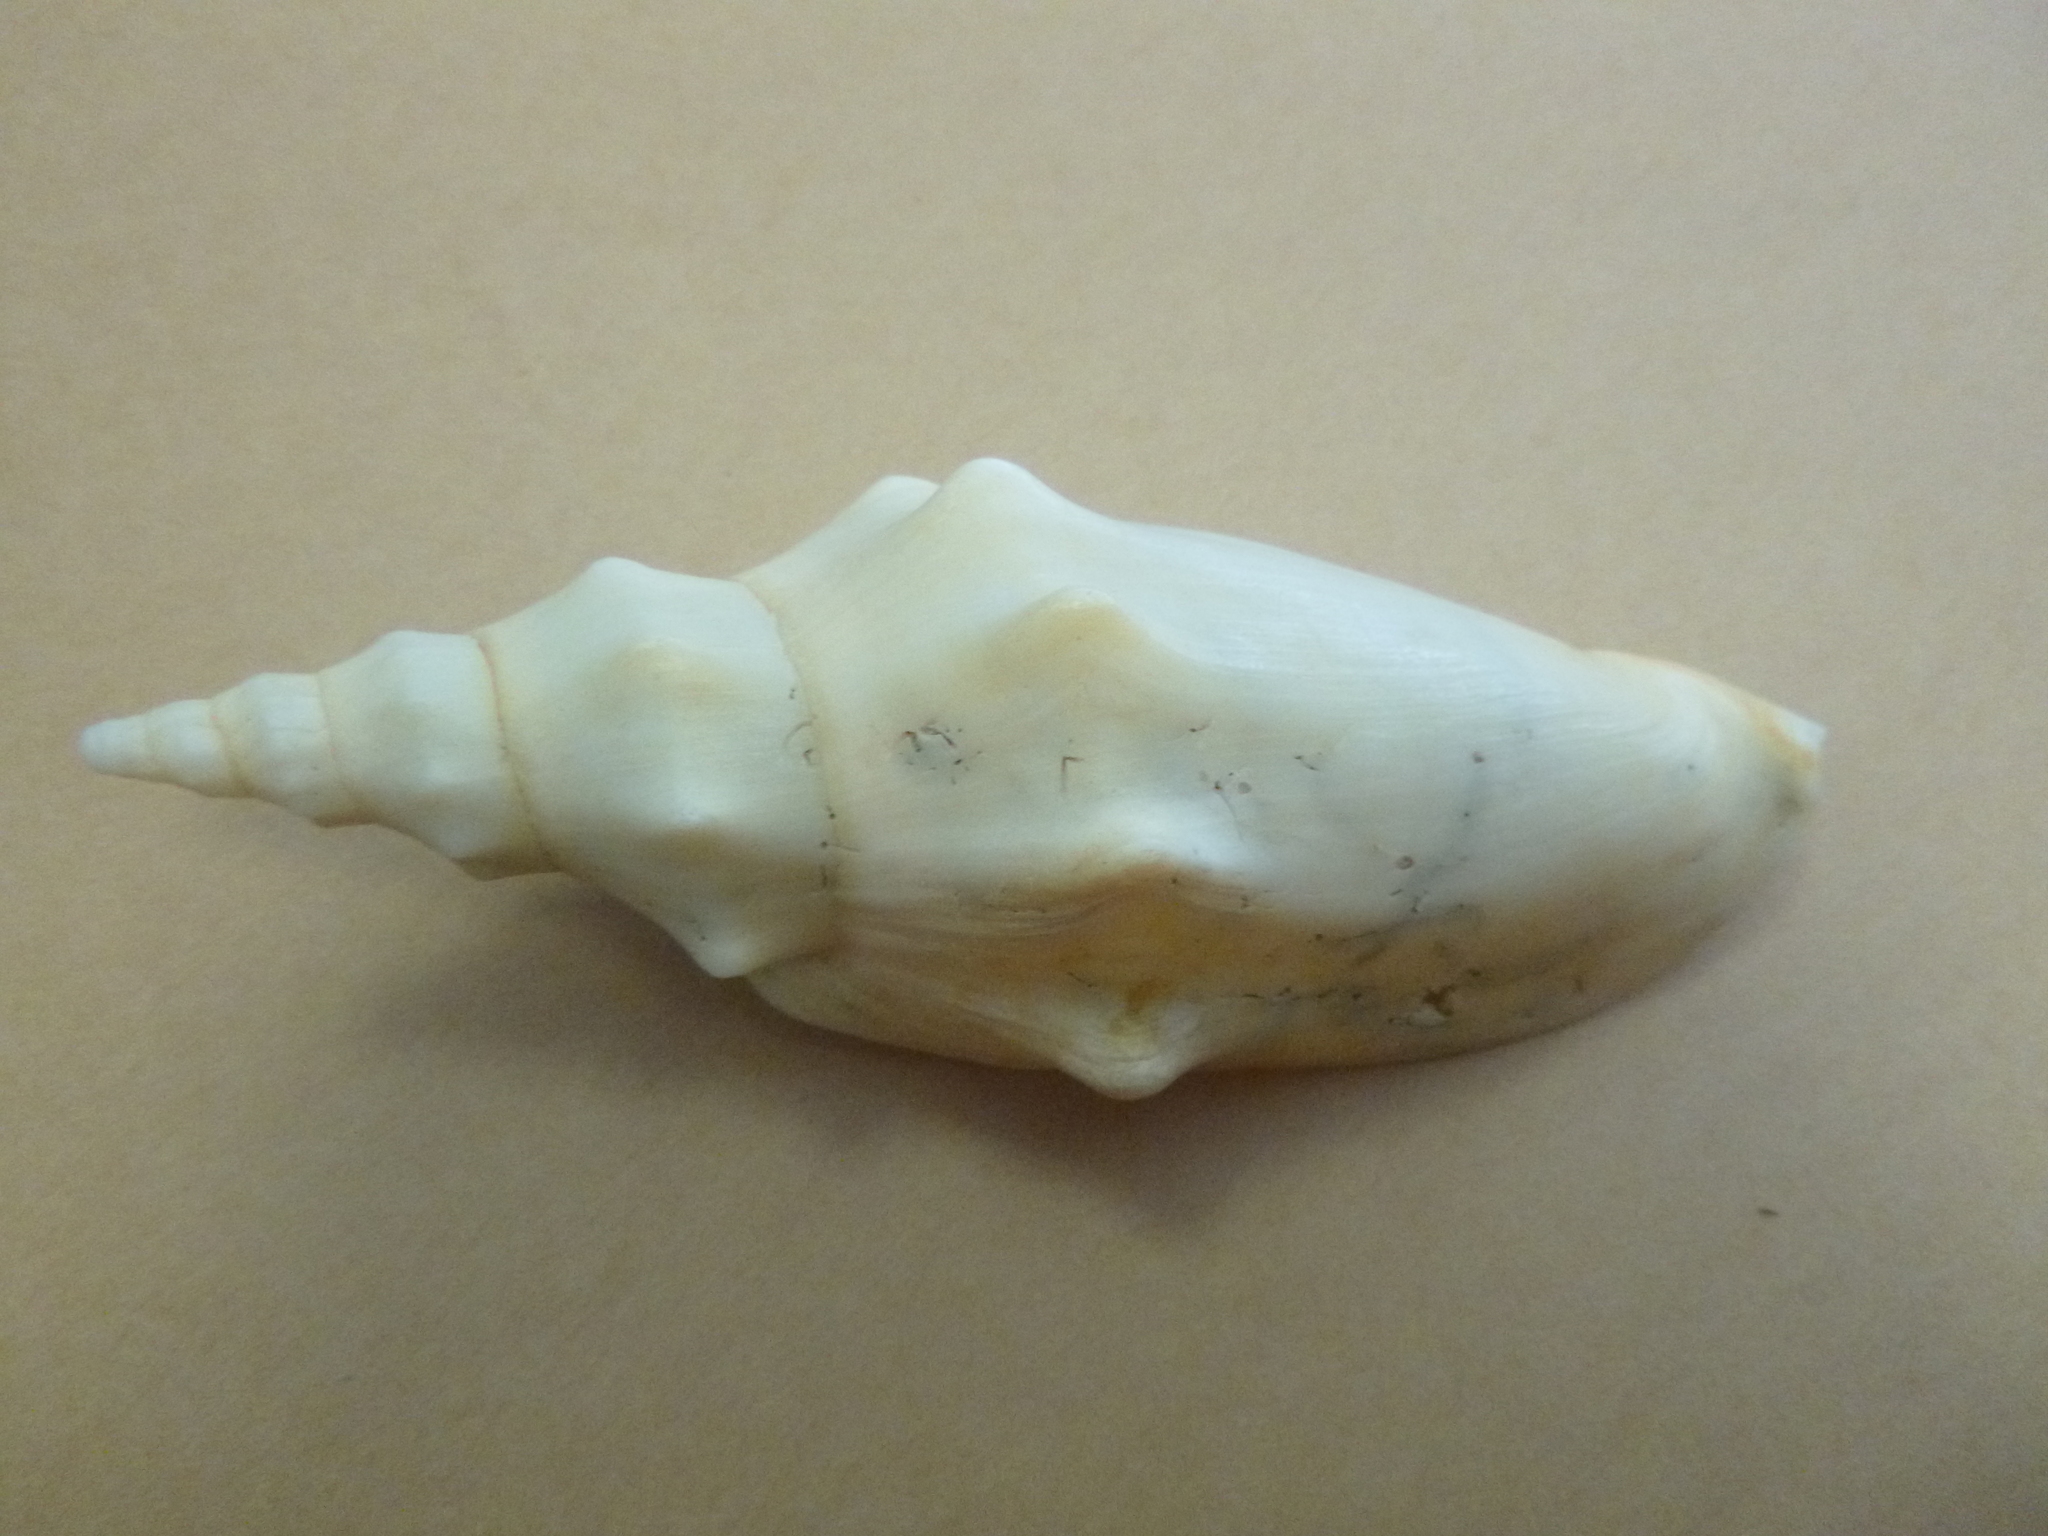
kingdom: Animalia
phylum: Mollusca
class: Gastropoda
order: Neogastropoda
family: Volutidae
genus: Alcithoe
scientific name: Alcithoe jaculoides
